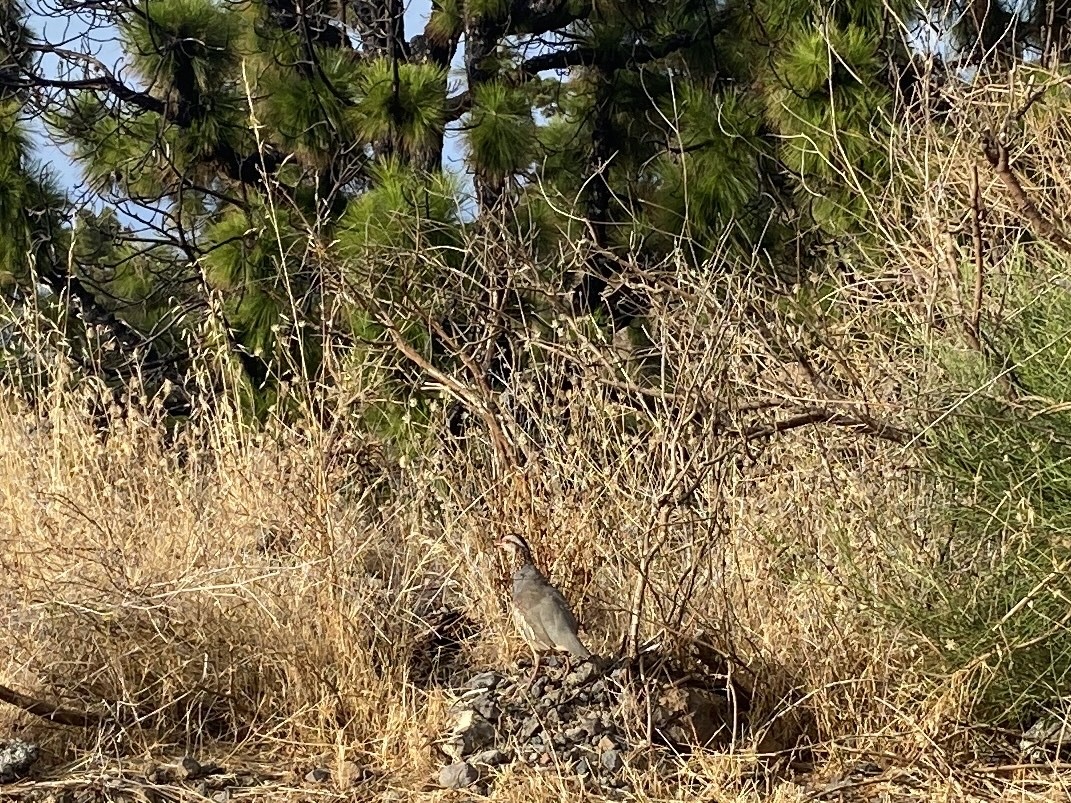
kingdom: Animalia
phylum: Chordata
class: Aves
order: Galliformes
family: Phasianidae
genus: Alectoris
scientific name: Alectoris barbara
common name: Barbary partridge
